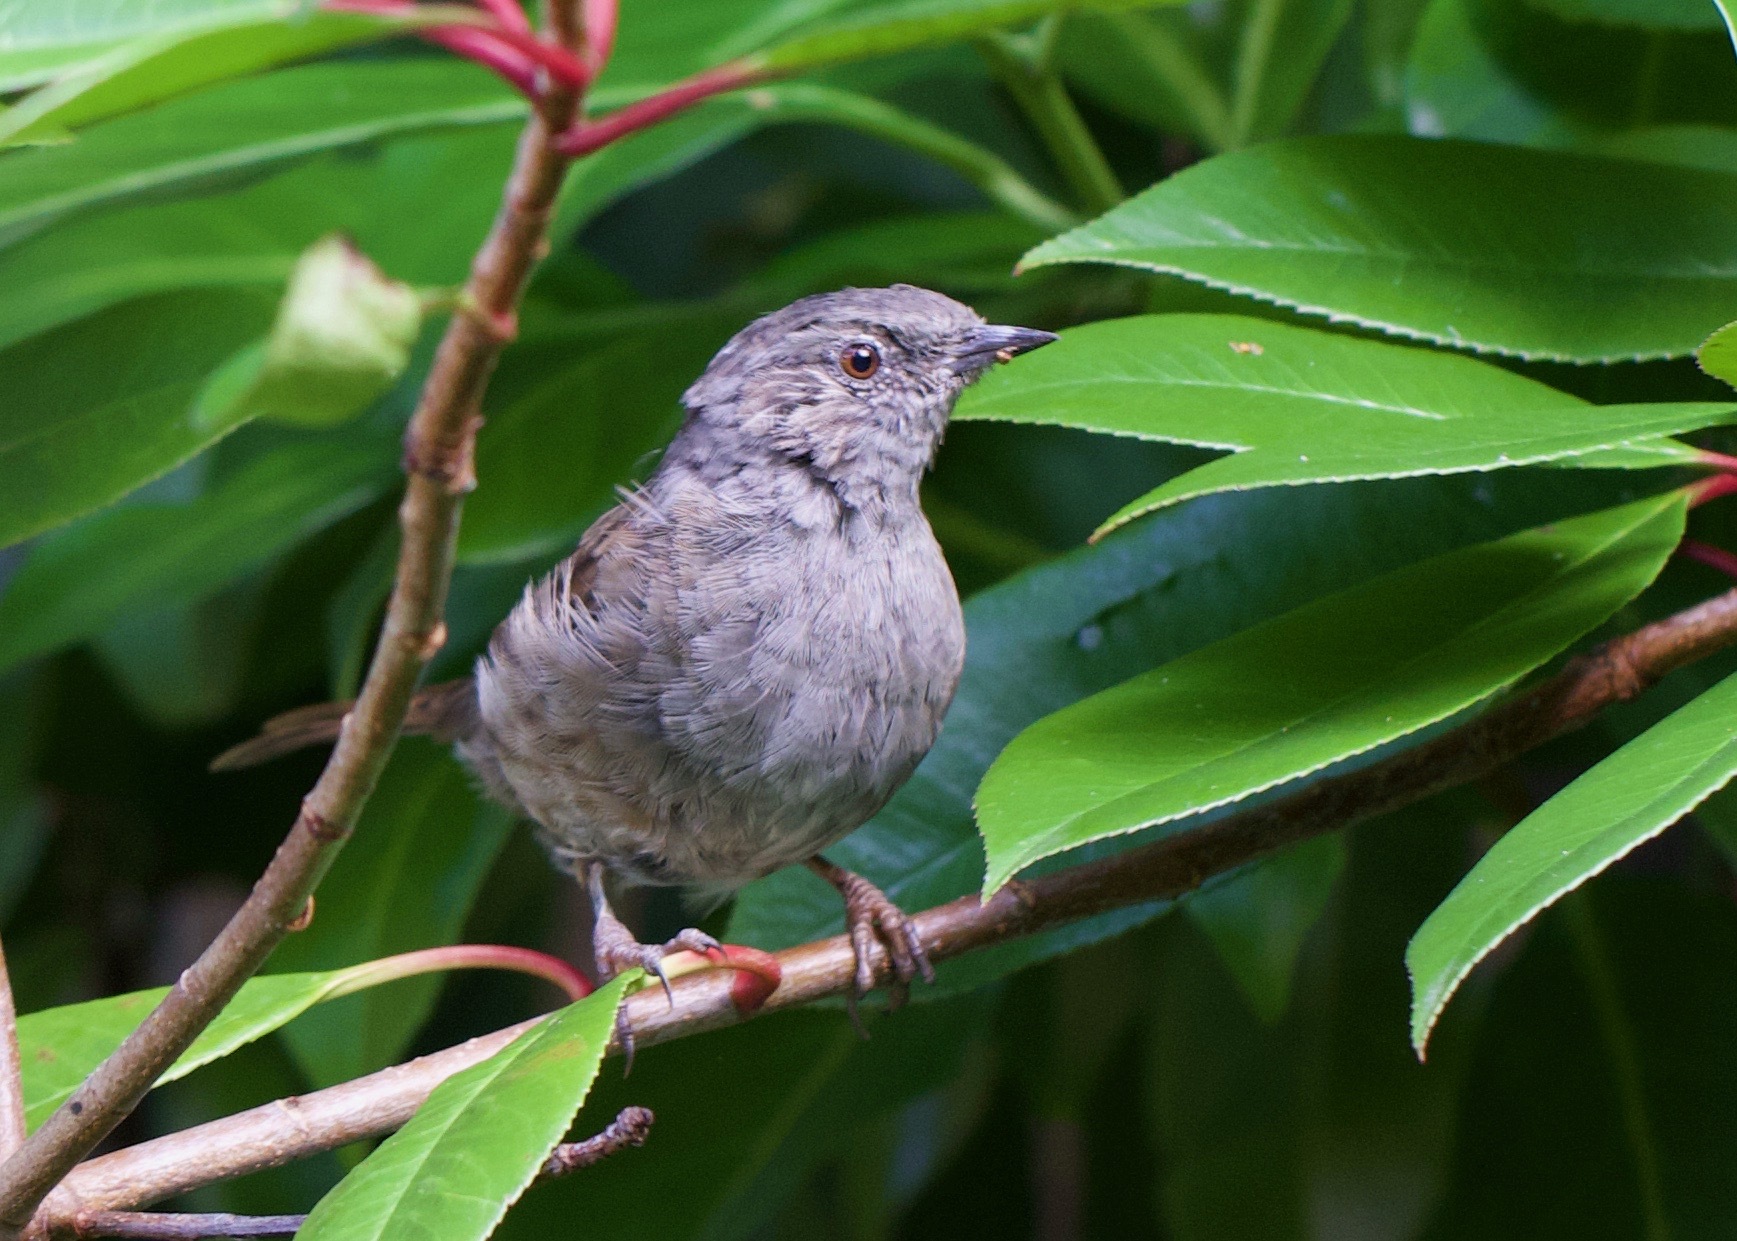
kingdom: Animalia
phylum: Chordata
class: Aves
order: Passeriformes
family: Prunellidae
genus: Prunella
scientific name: Prunella modularis
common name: Dunnock
